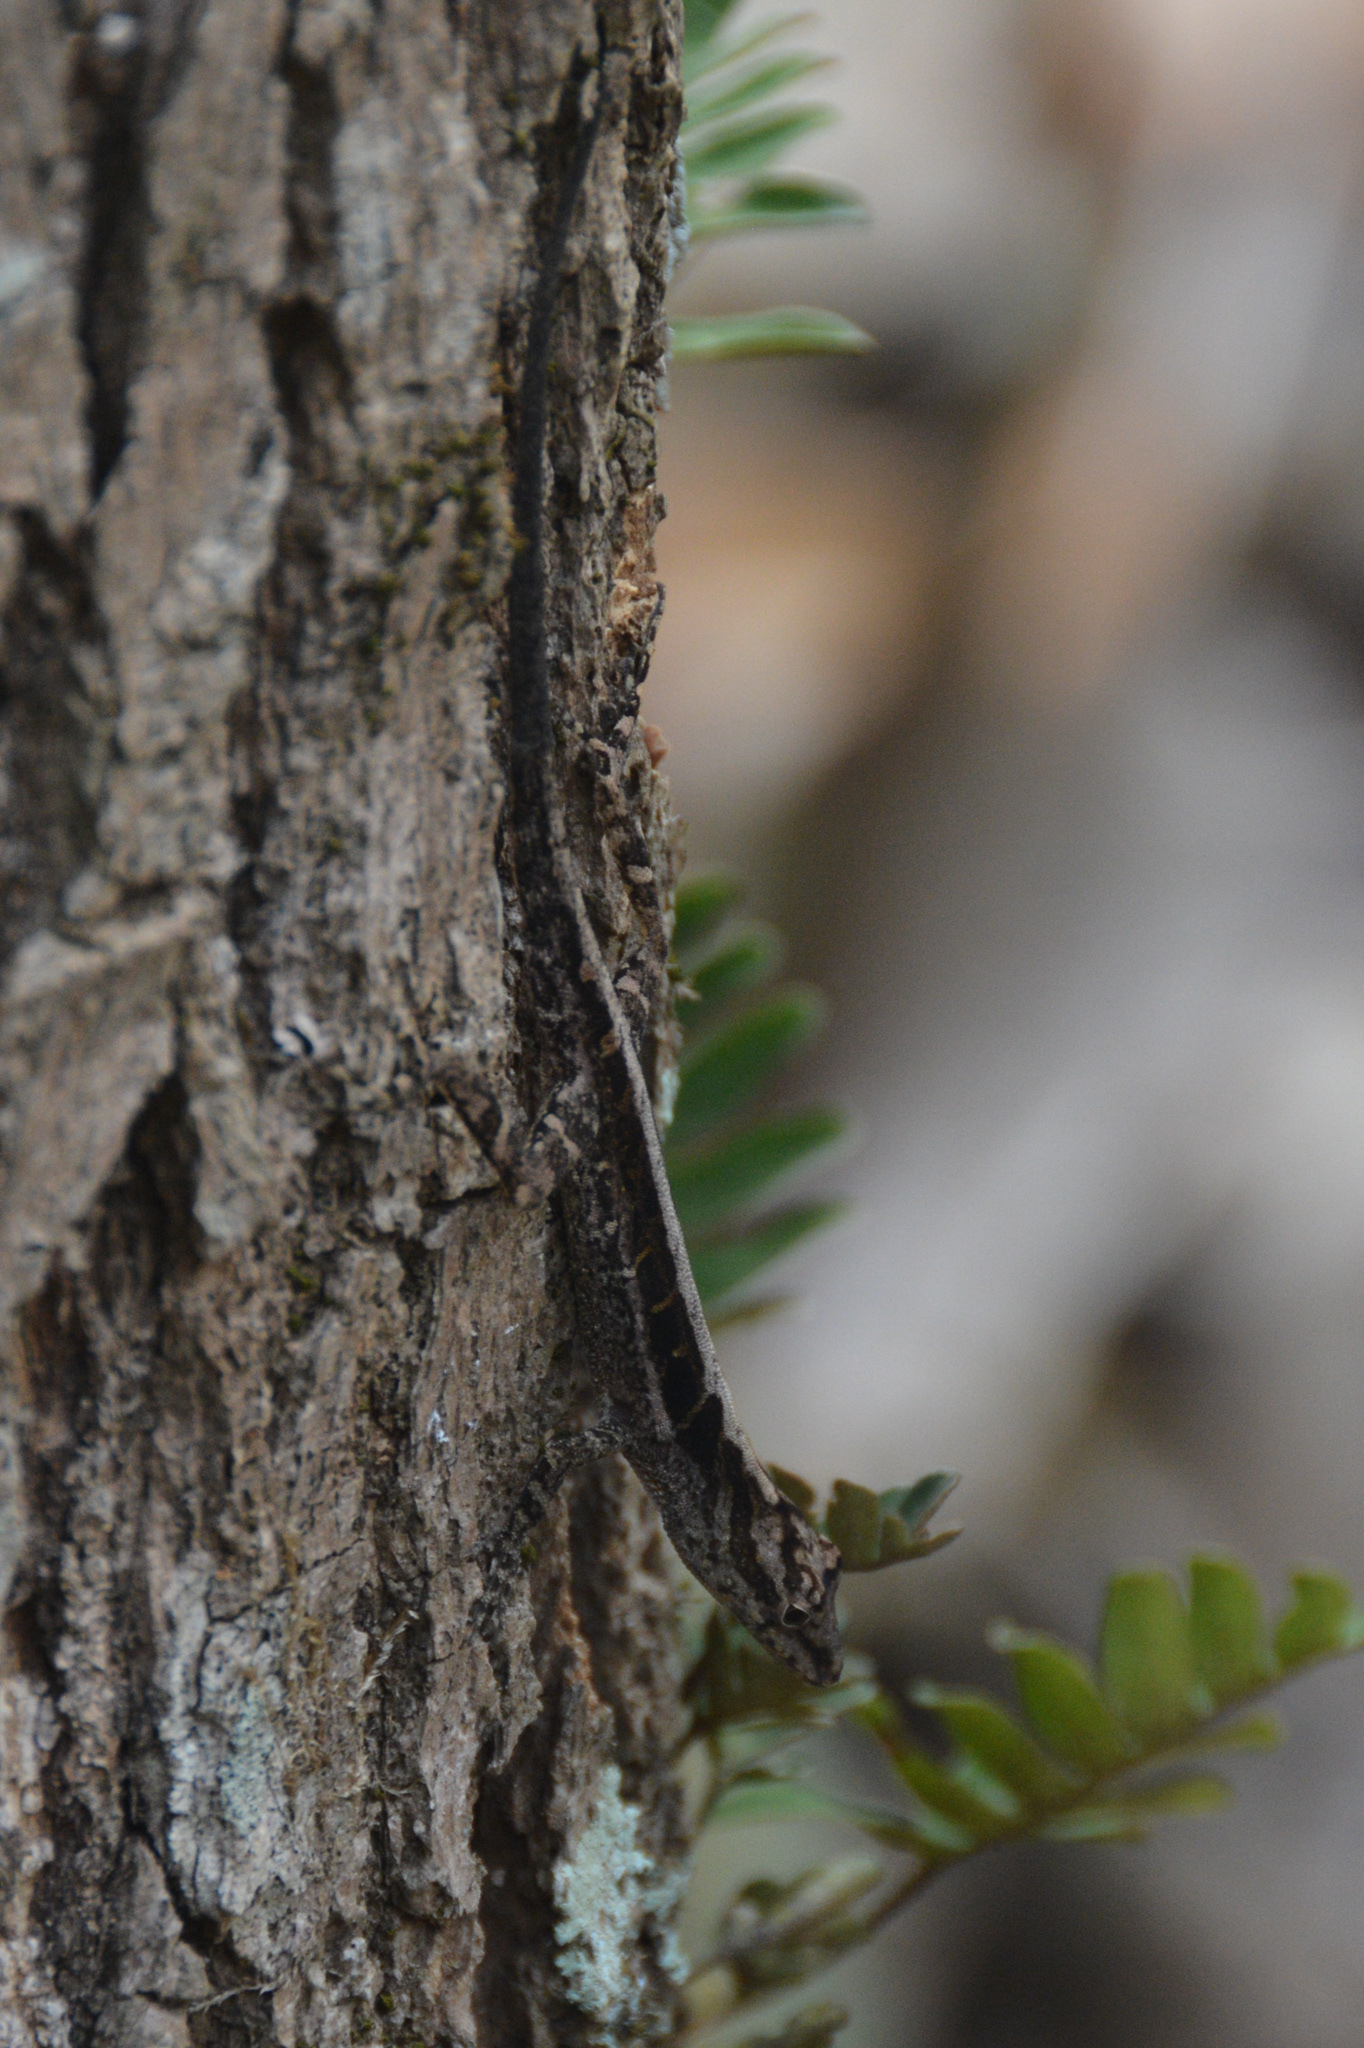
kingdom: Animalia
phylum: Chordata
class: Squamata
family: Dactyloidae
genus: Anolis
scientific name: Anolis cupreus
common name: Copper anole
